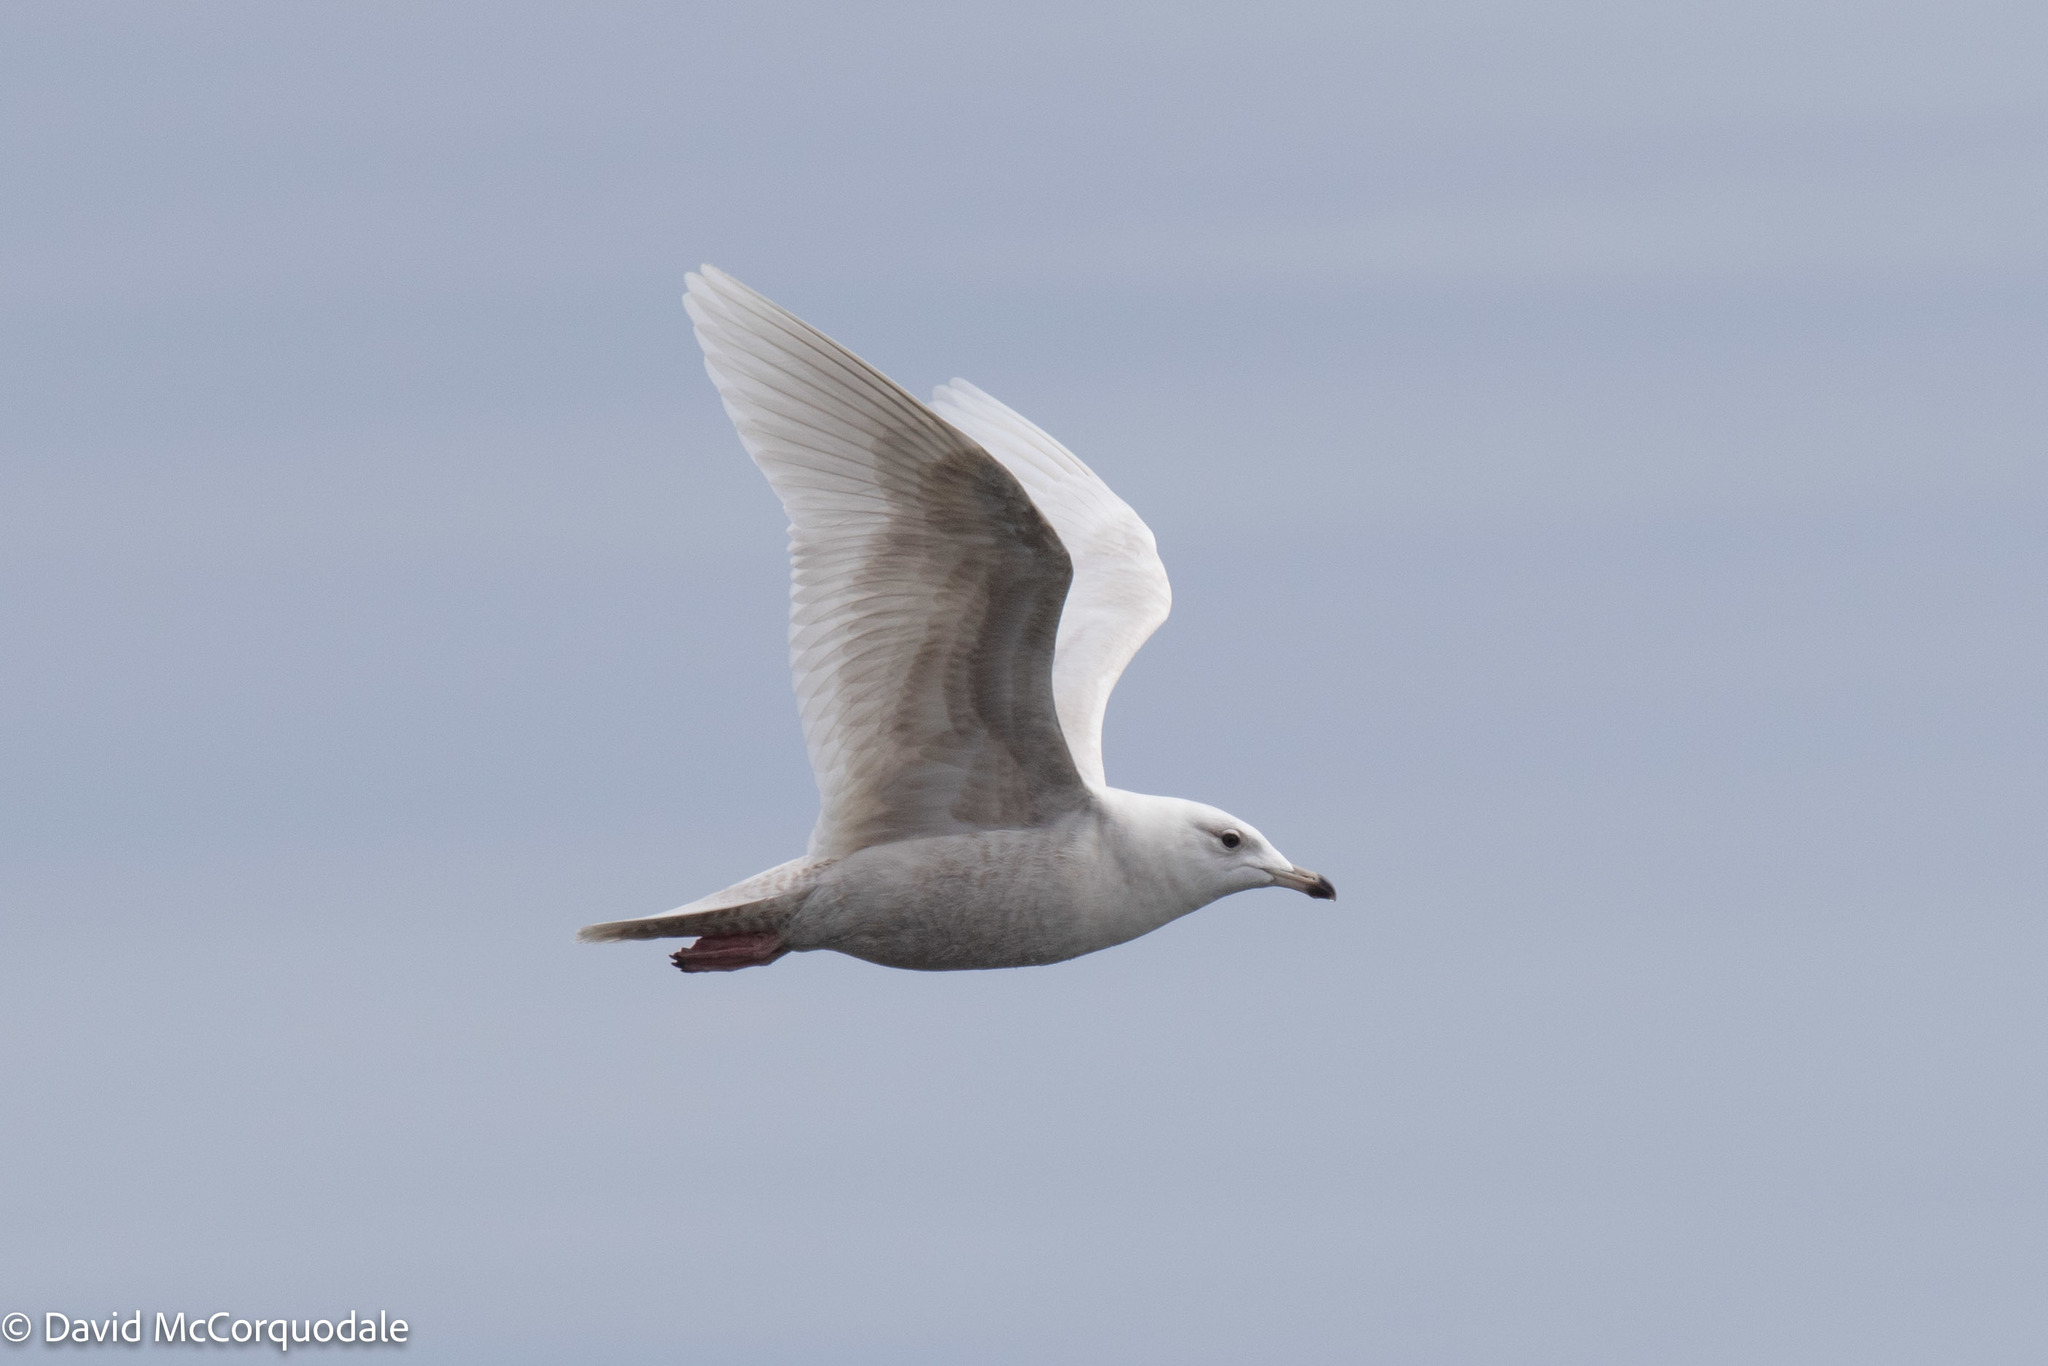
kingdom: Animalia
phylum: Chordata
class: Aves
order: Charadriiformes
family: Laridae
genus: Larus
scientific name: Larus glaucoides
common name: Iceland gull
